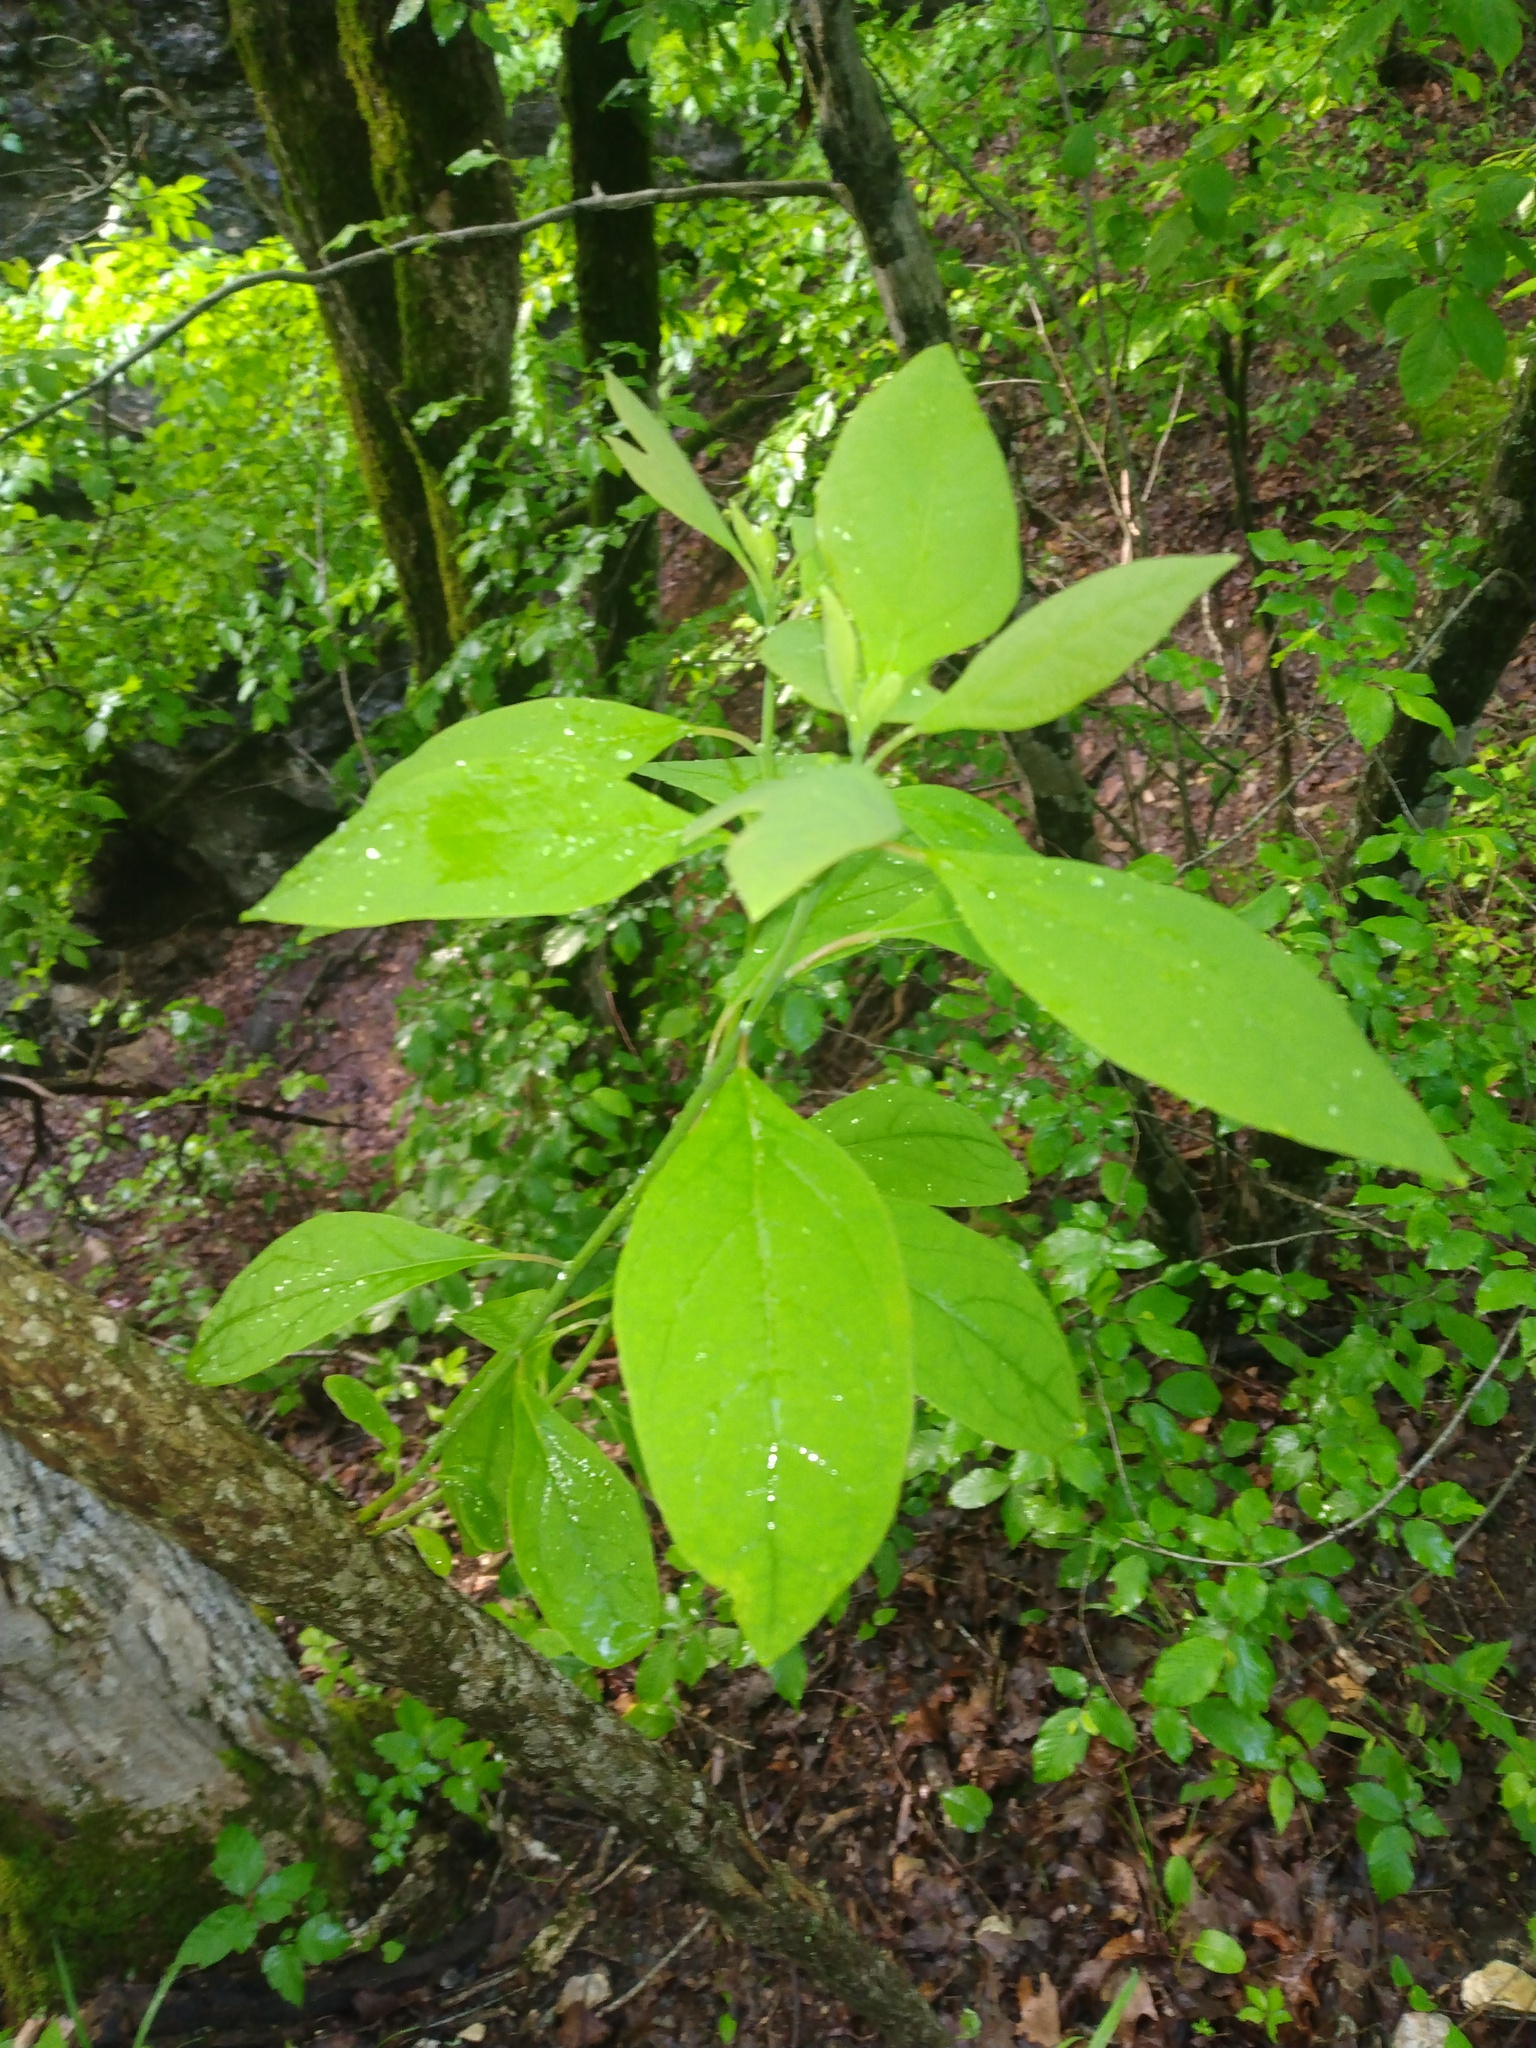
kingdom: Plantae
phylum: Tracheophyta
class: Magnoliopsida
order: Laurales
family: Lauraceae
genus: Sassafras
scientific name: Sassafras albidum
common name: Sassafras
